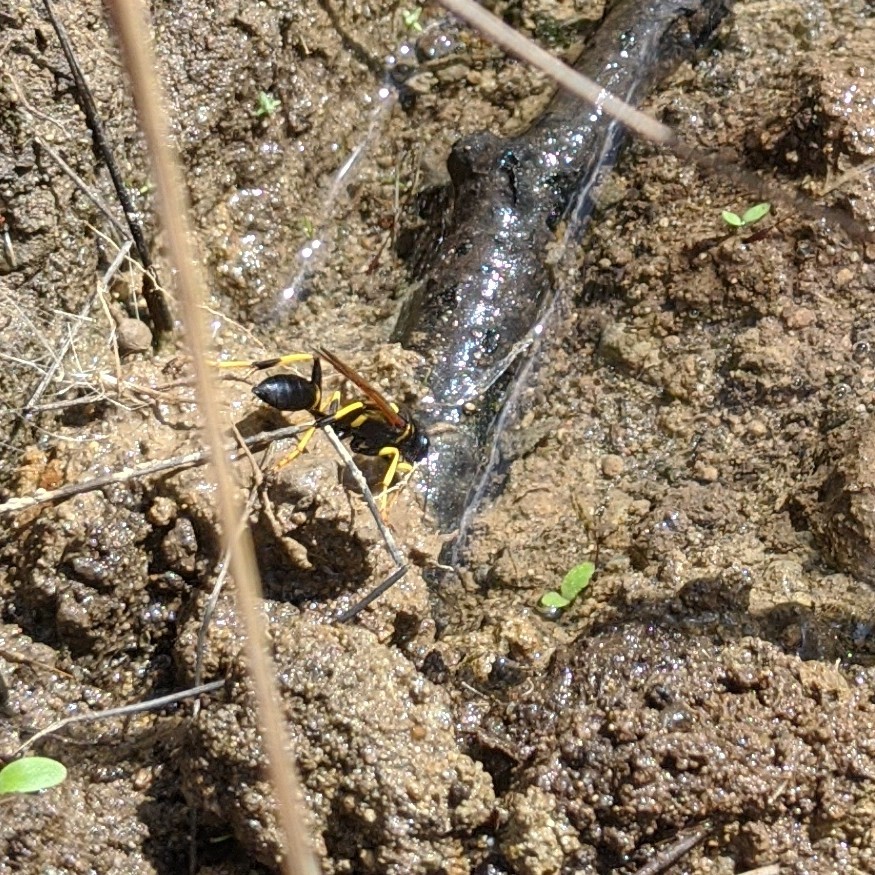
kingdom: Animalia
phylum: Arthropoda
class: Insecta
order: Hymenoptera
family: Sphecidae
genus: Sceliphron
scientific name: Sceliphron caementarium
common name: Mud dauber
